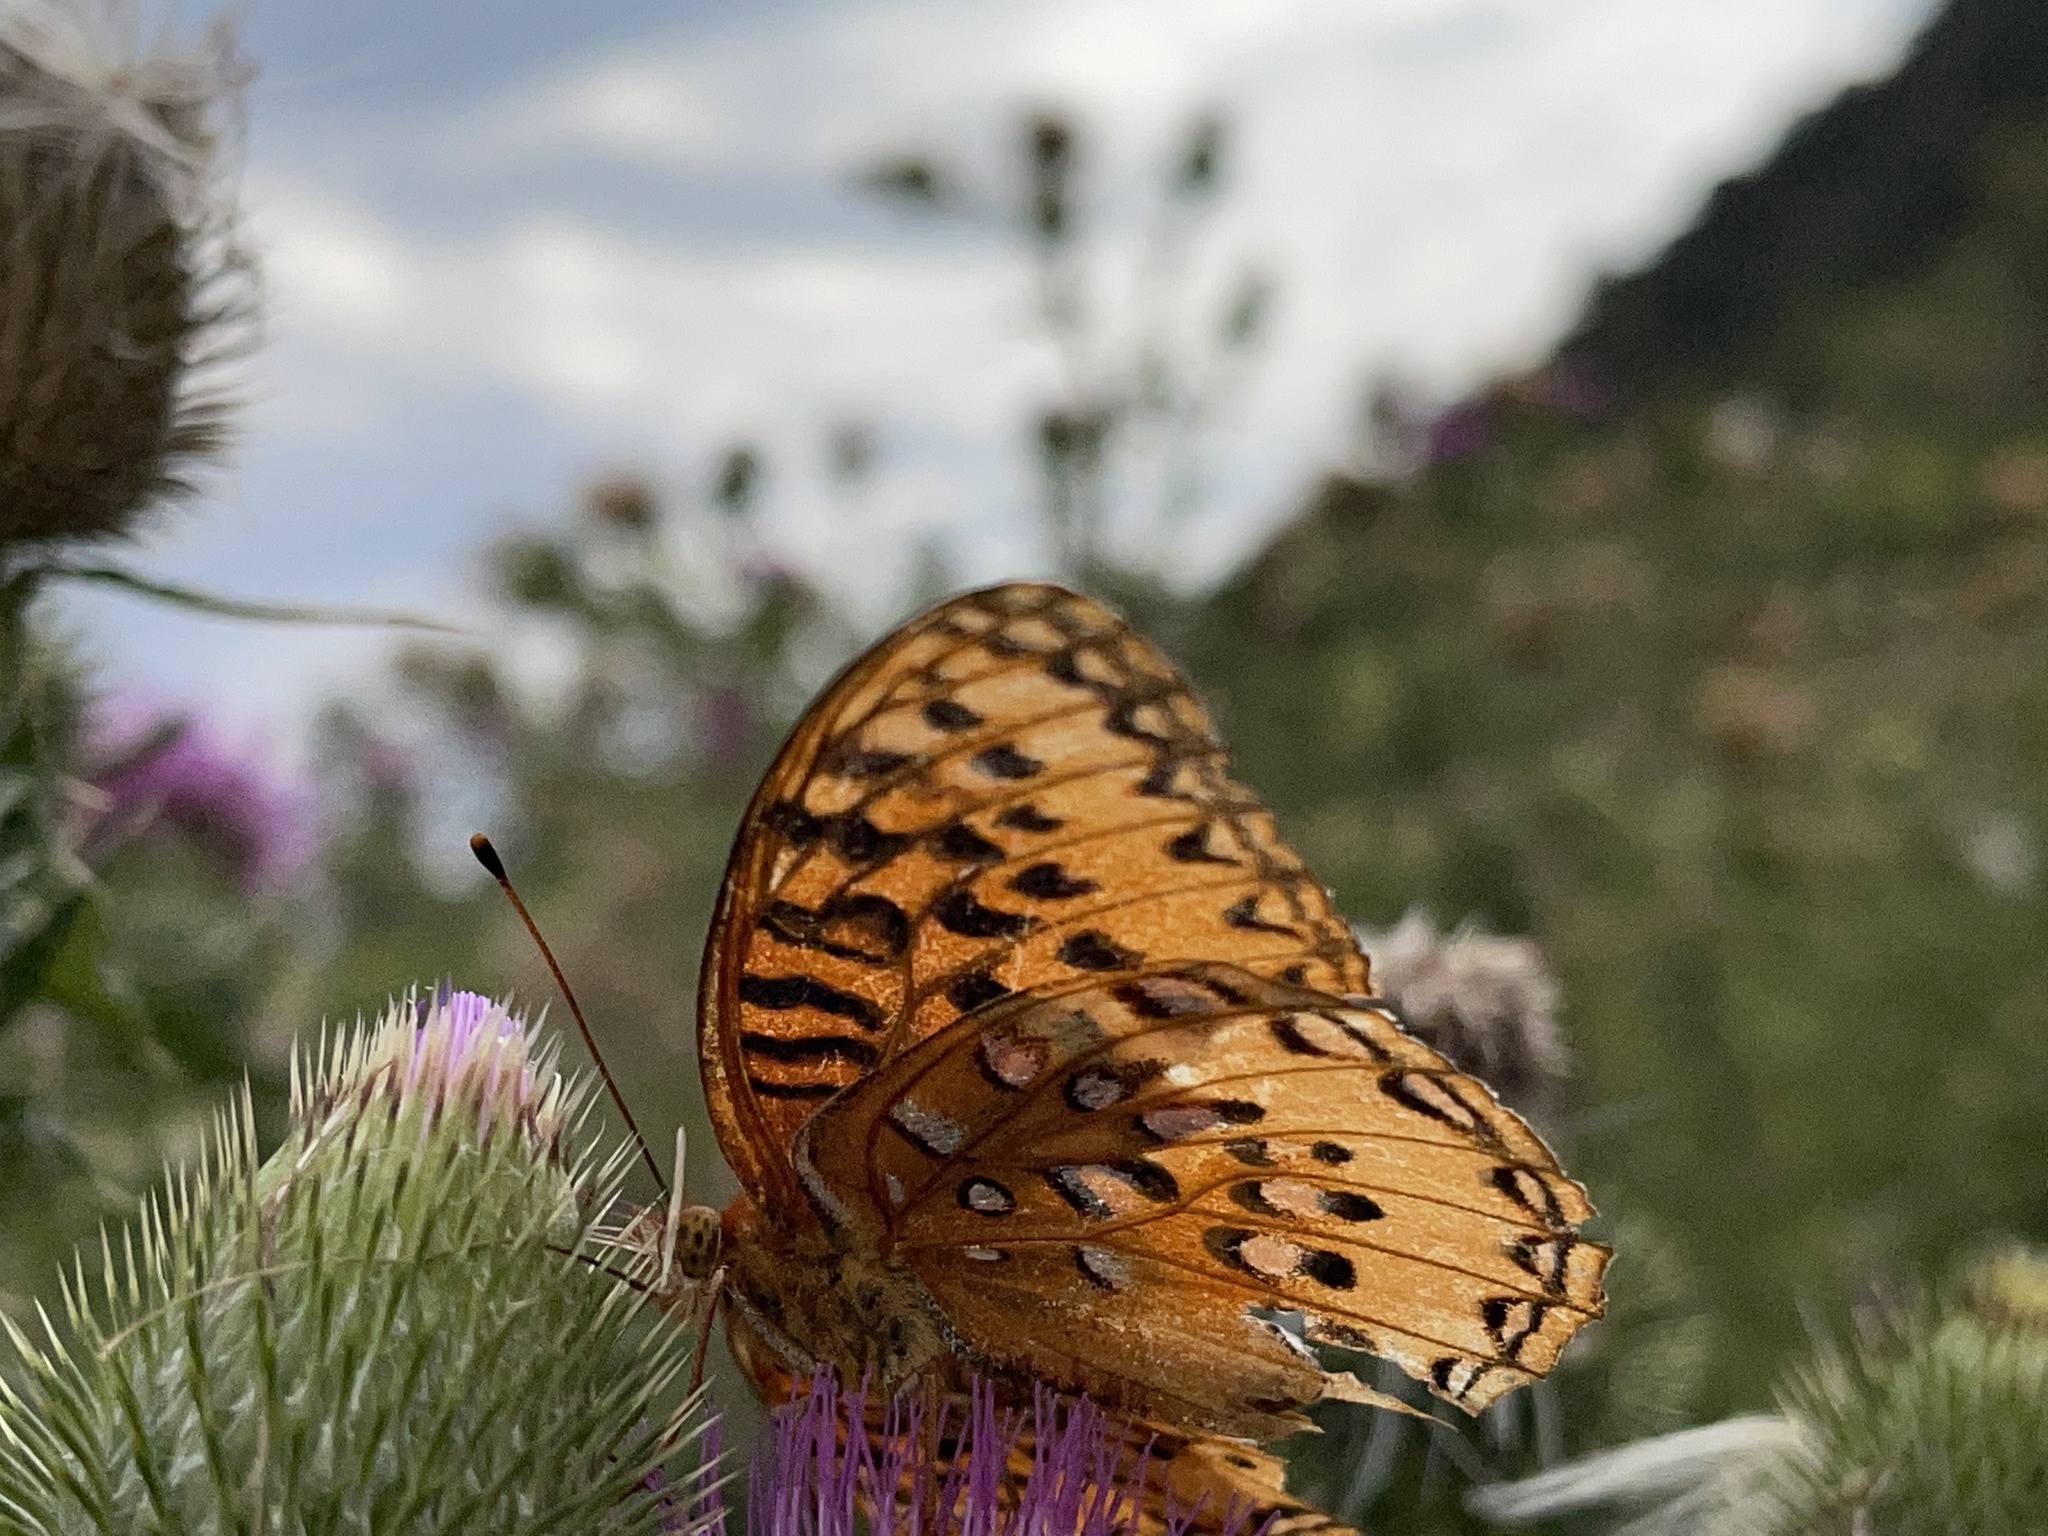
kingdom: Animalia
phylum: Arthropoda
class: Insecta
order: Lepidoptera
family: Nymphalidae
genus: Speyeria
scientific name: Speyeria nokomis
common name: Nokomis fritillary
